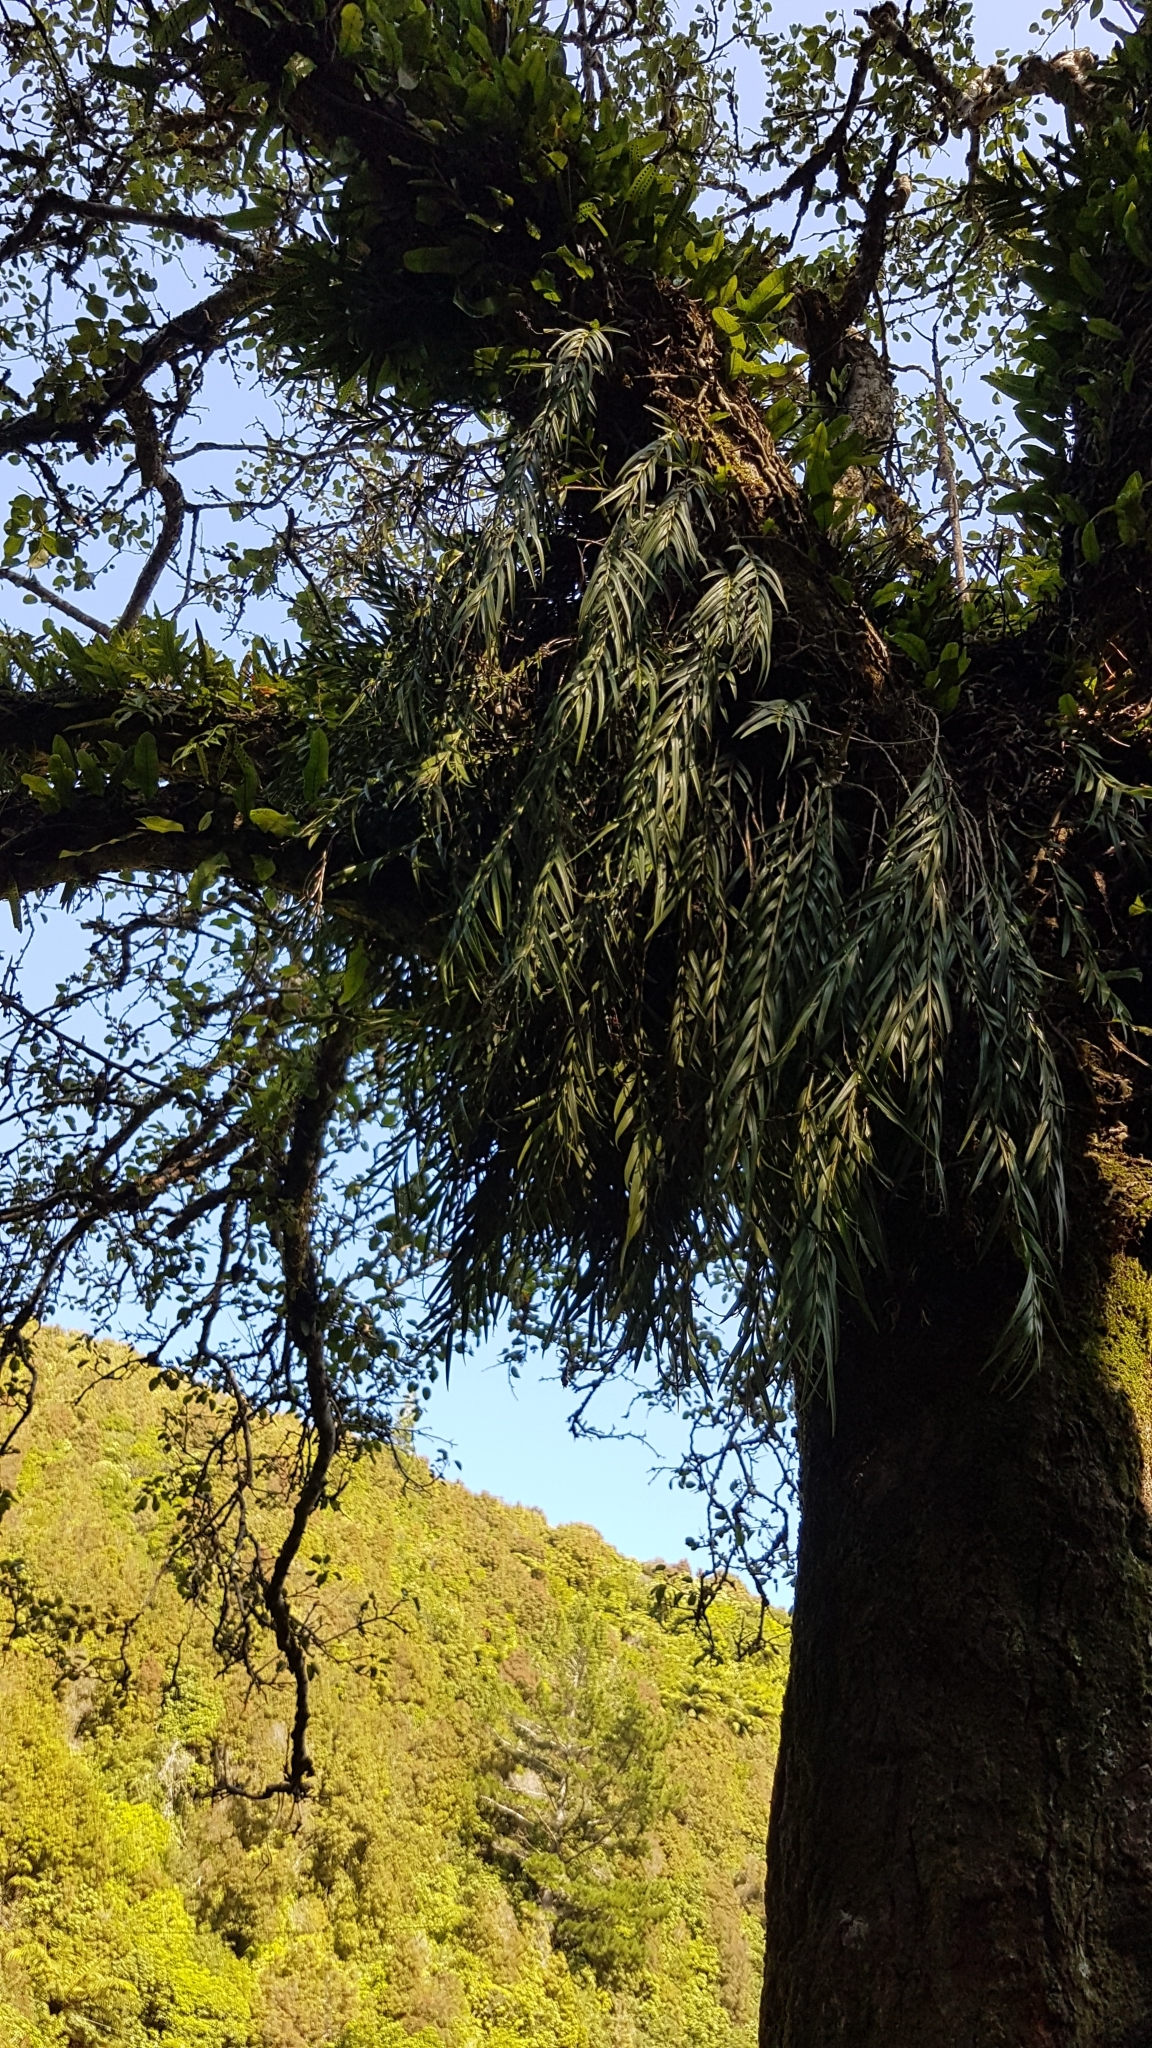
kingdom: Plantae
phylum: Tracheophyta
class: Liliopsida
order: Asparagales
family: Orchidaceae
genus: Earina
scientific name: Earina autumnalis
